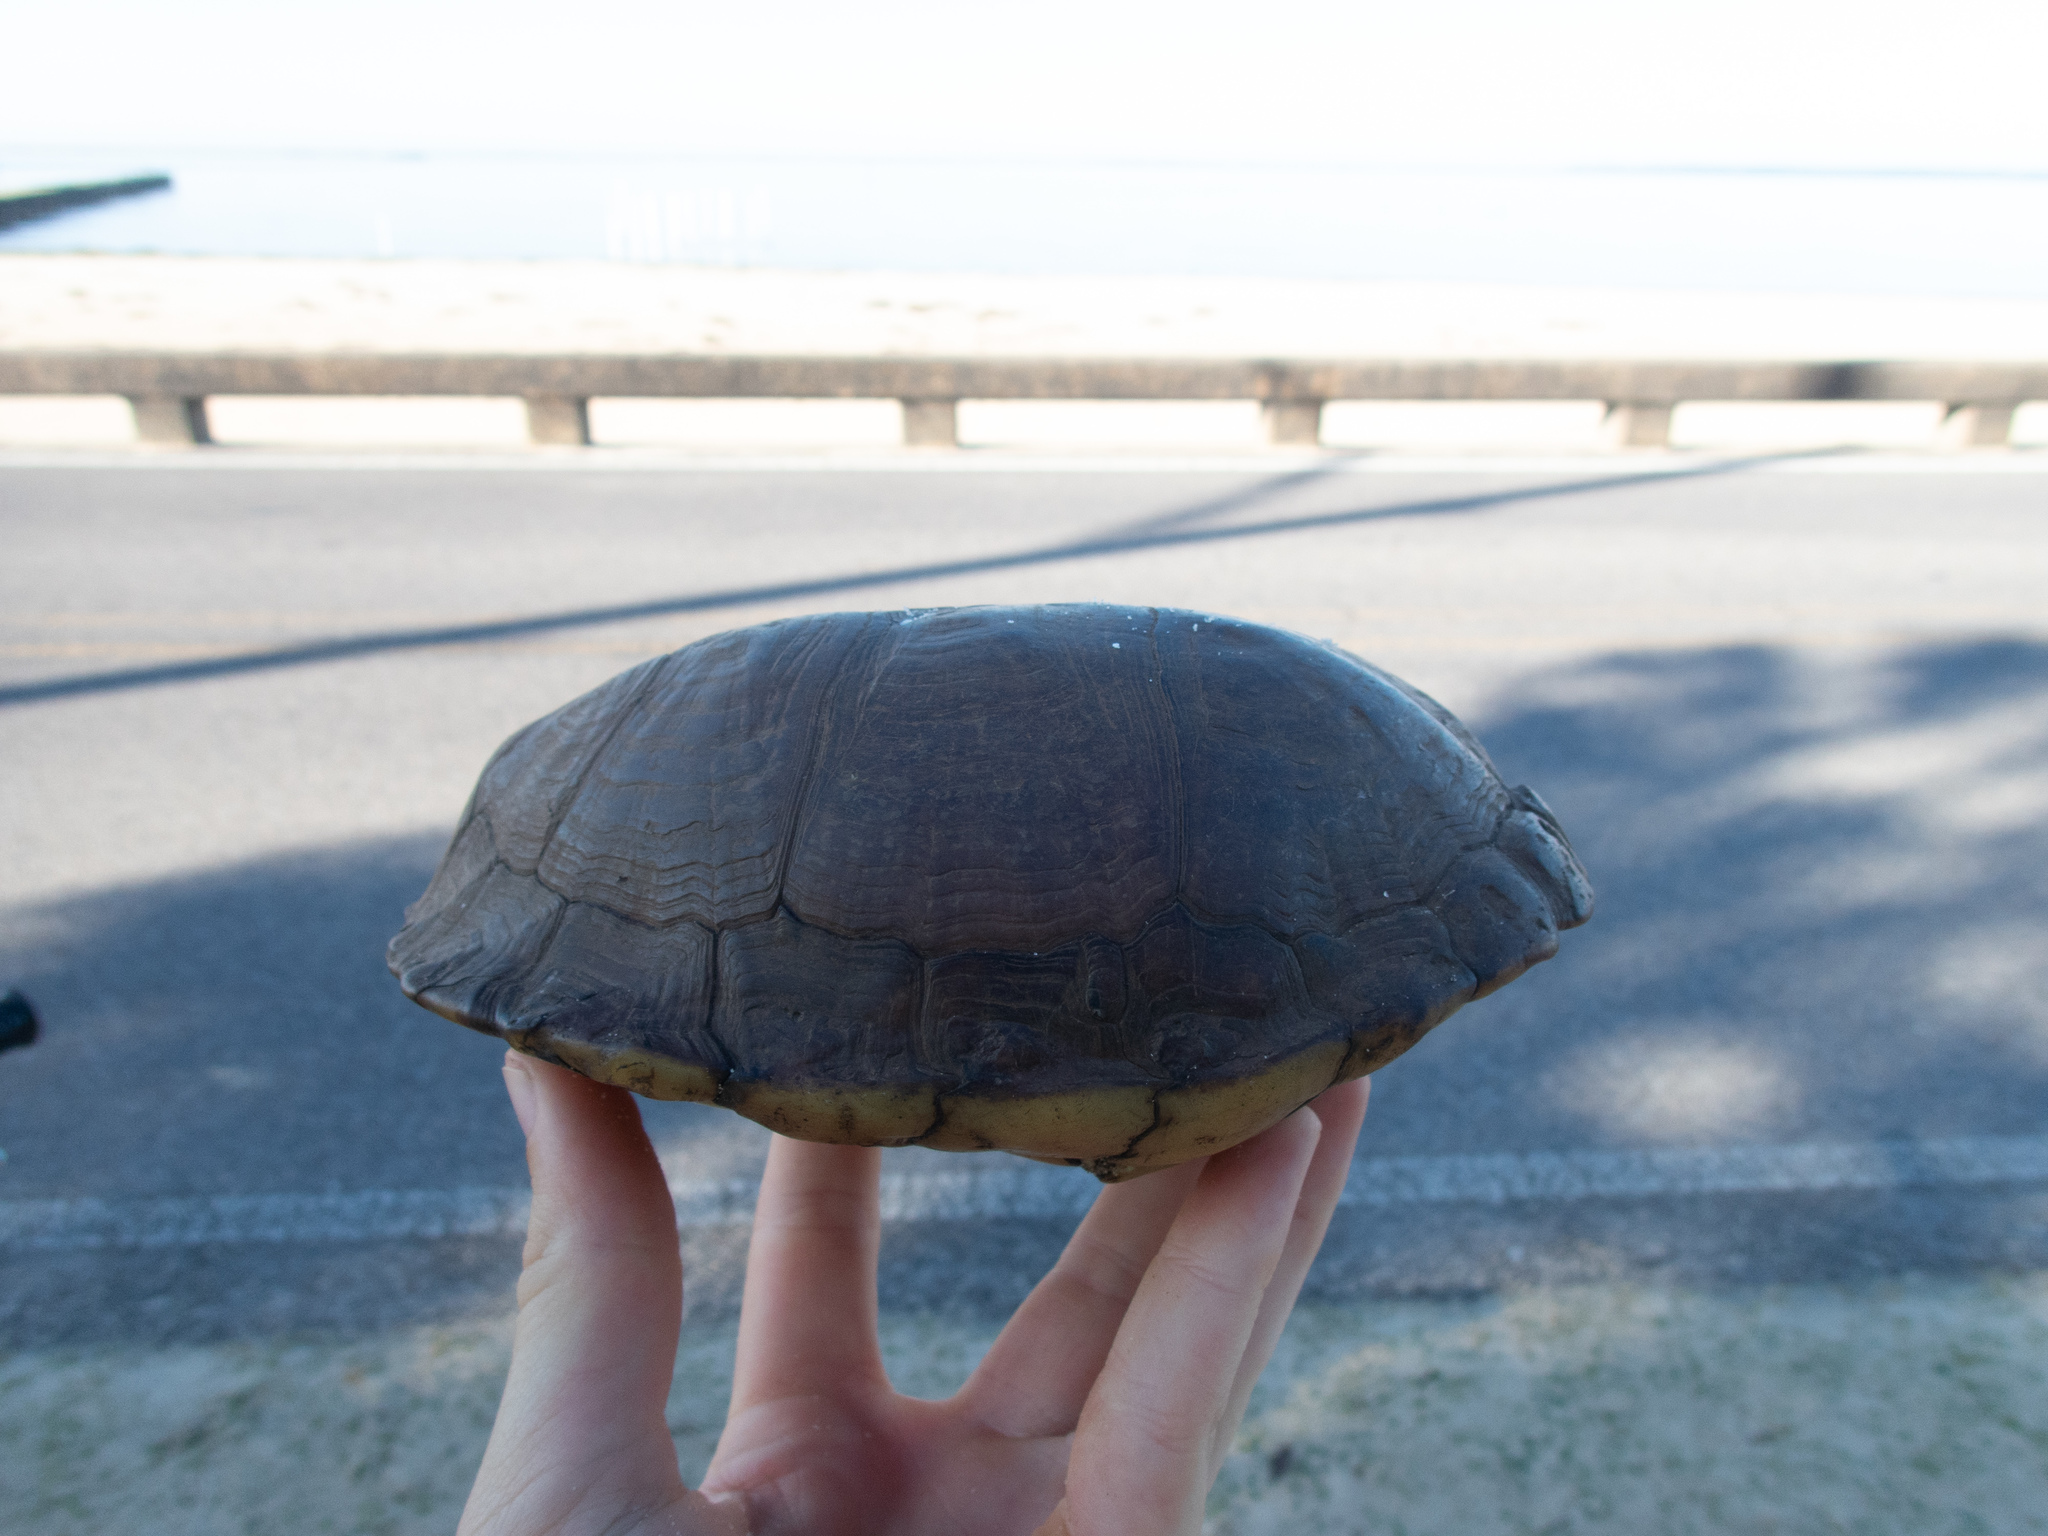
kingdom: Animalia
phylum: Chordata
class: Testudines
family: Emydidae
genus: Terrapene
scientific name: Terrapene carolina
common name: Common box turtle
